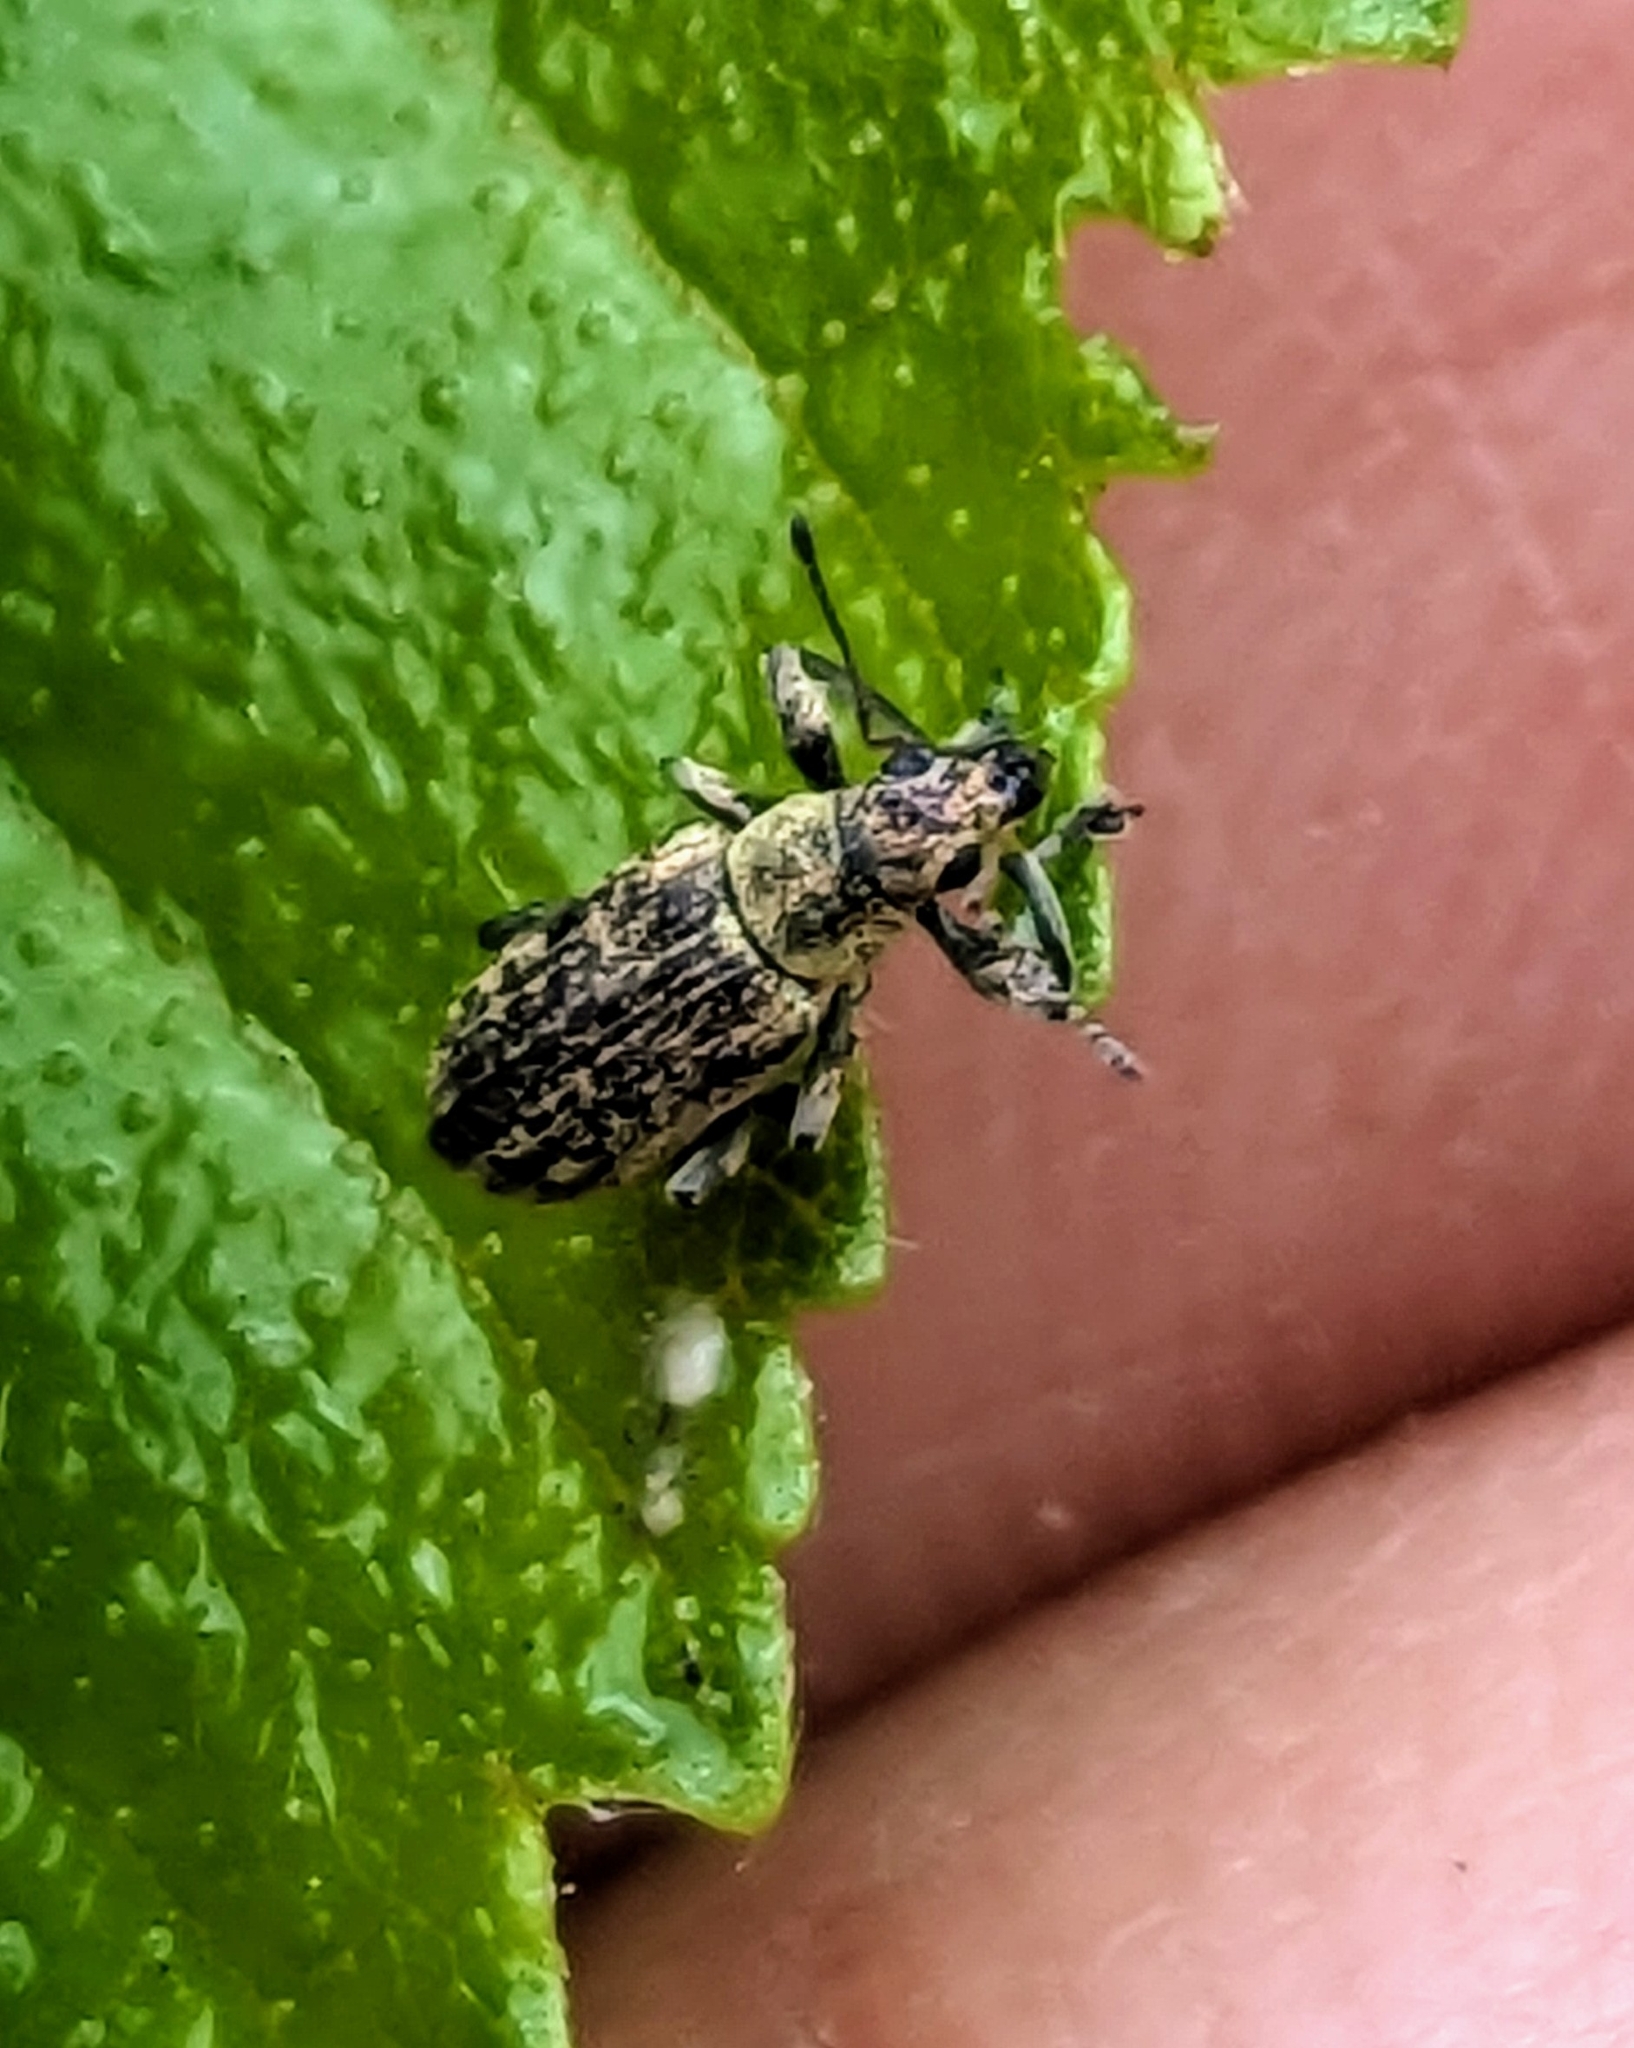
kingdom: Animalia
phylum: Arthropoda
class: Insecta
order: Coleoptera
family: Curculionidae
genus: Polydrusus
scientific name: Polydrusus cervinus
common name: Weevil
